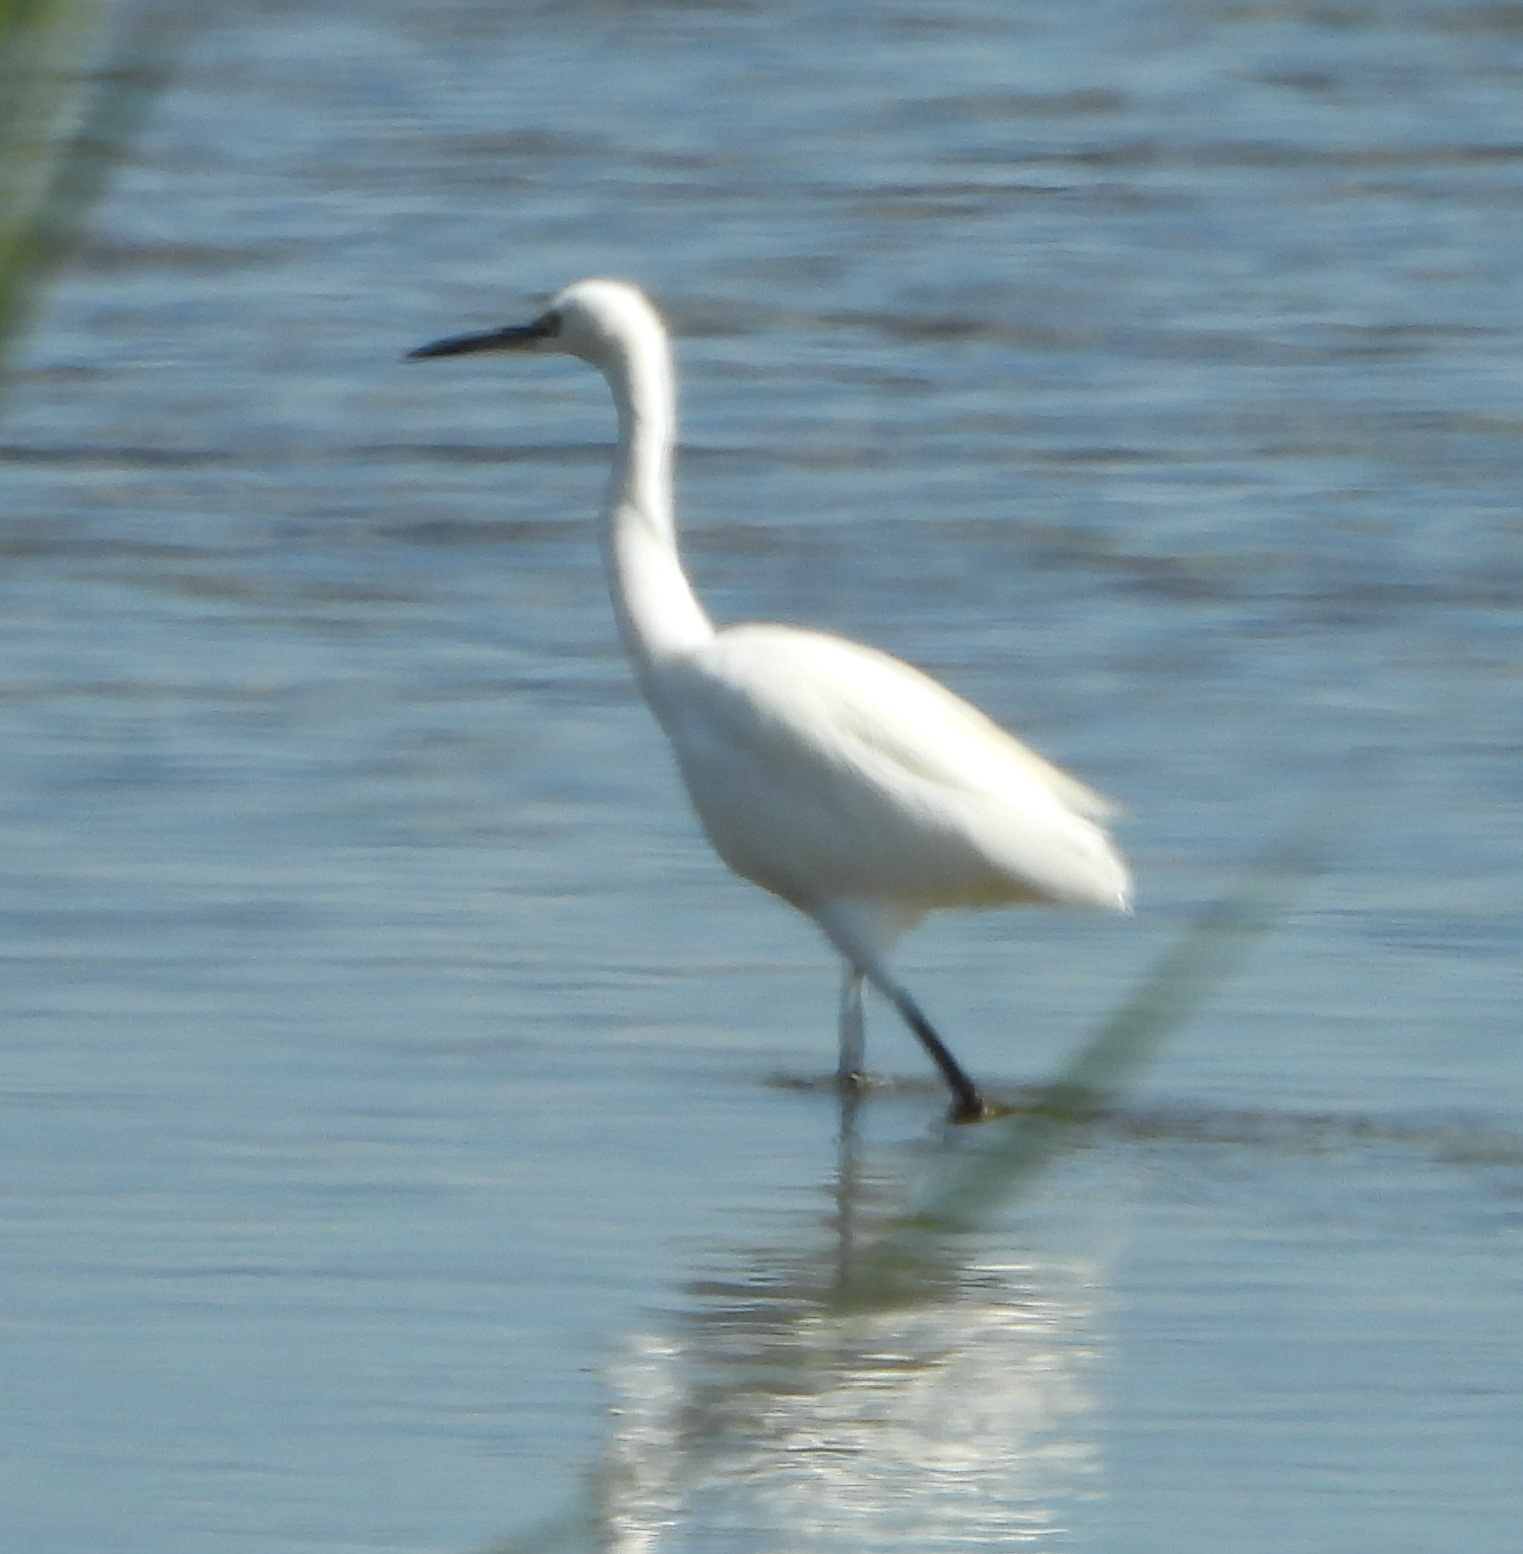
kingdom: Animalia
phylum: Chordata
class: Aves
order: Pelecaniformes
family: Ardeidae
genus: Egretta
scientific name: Egretta garzetta
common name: Little egret
